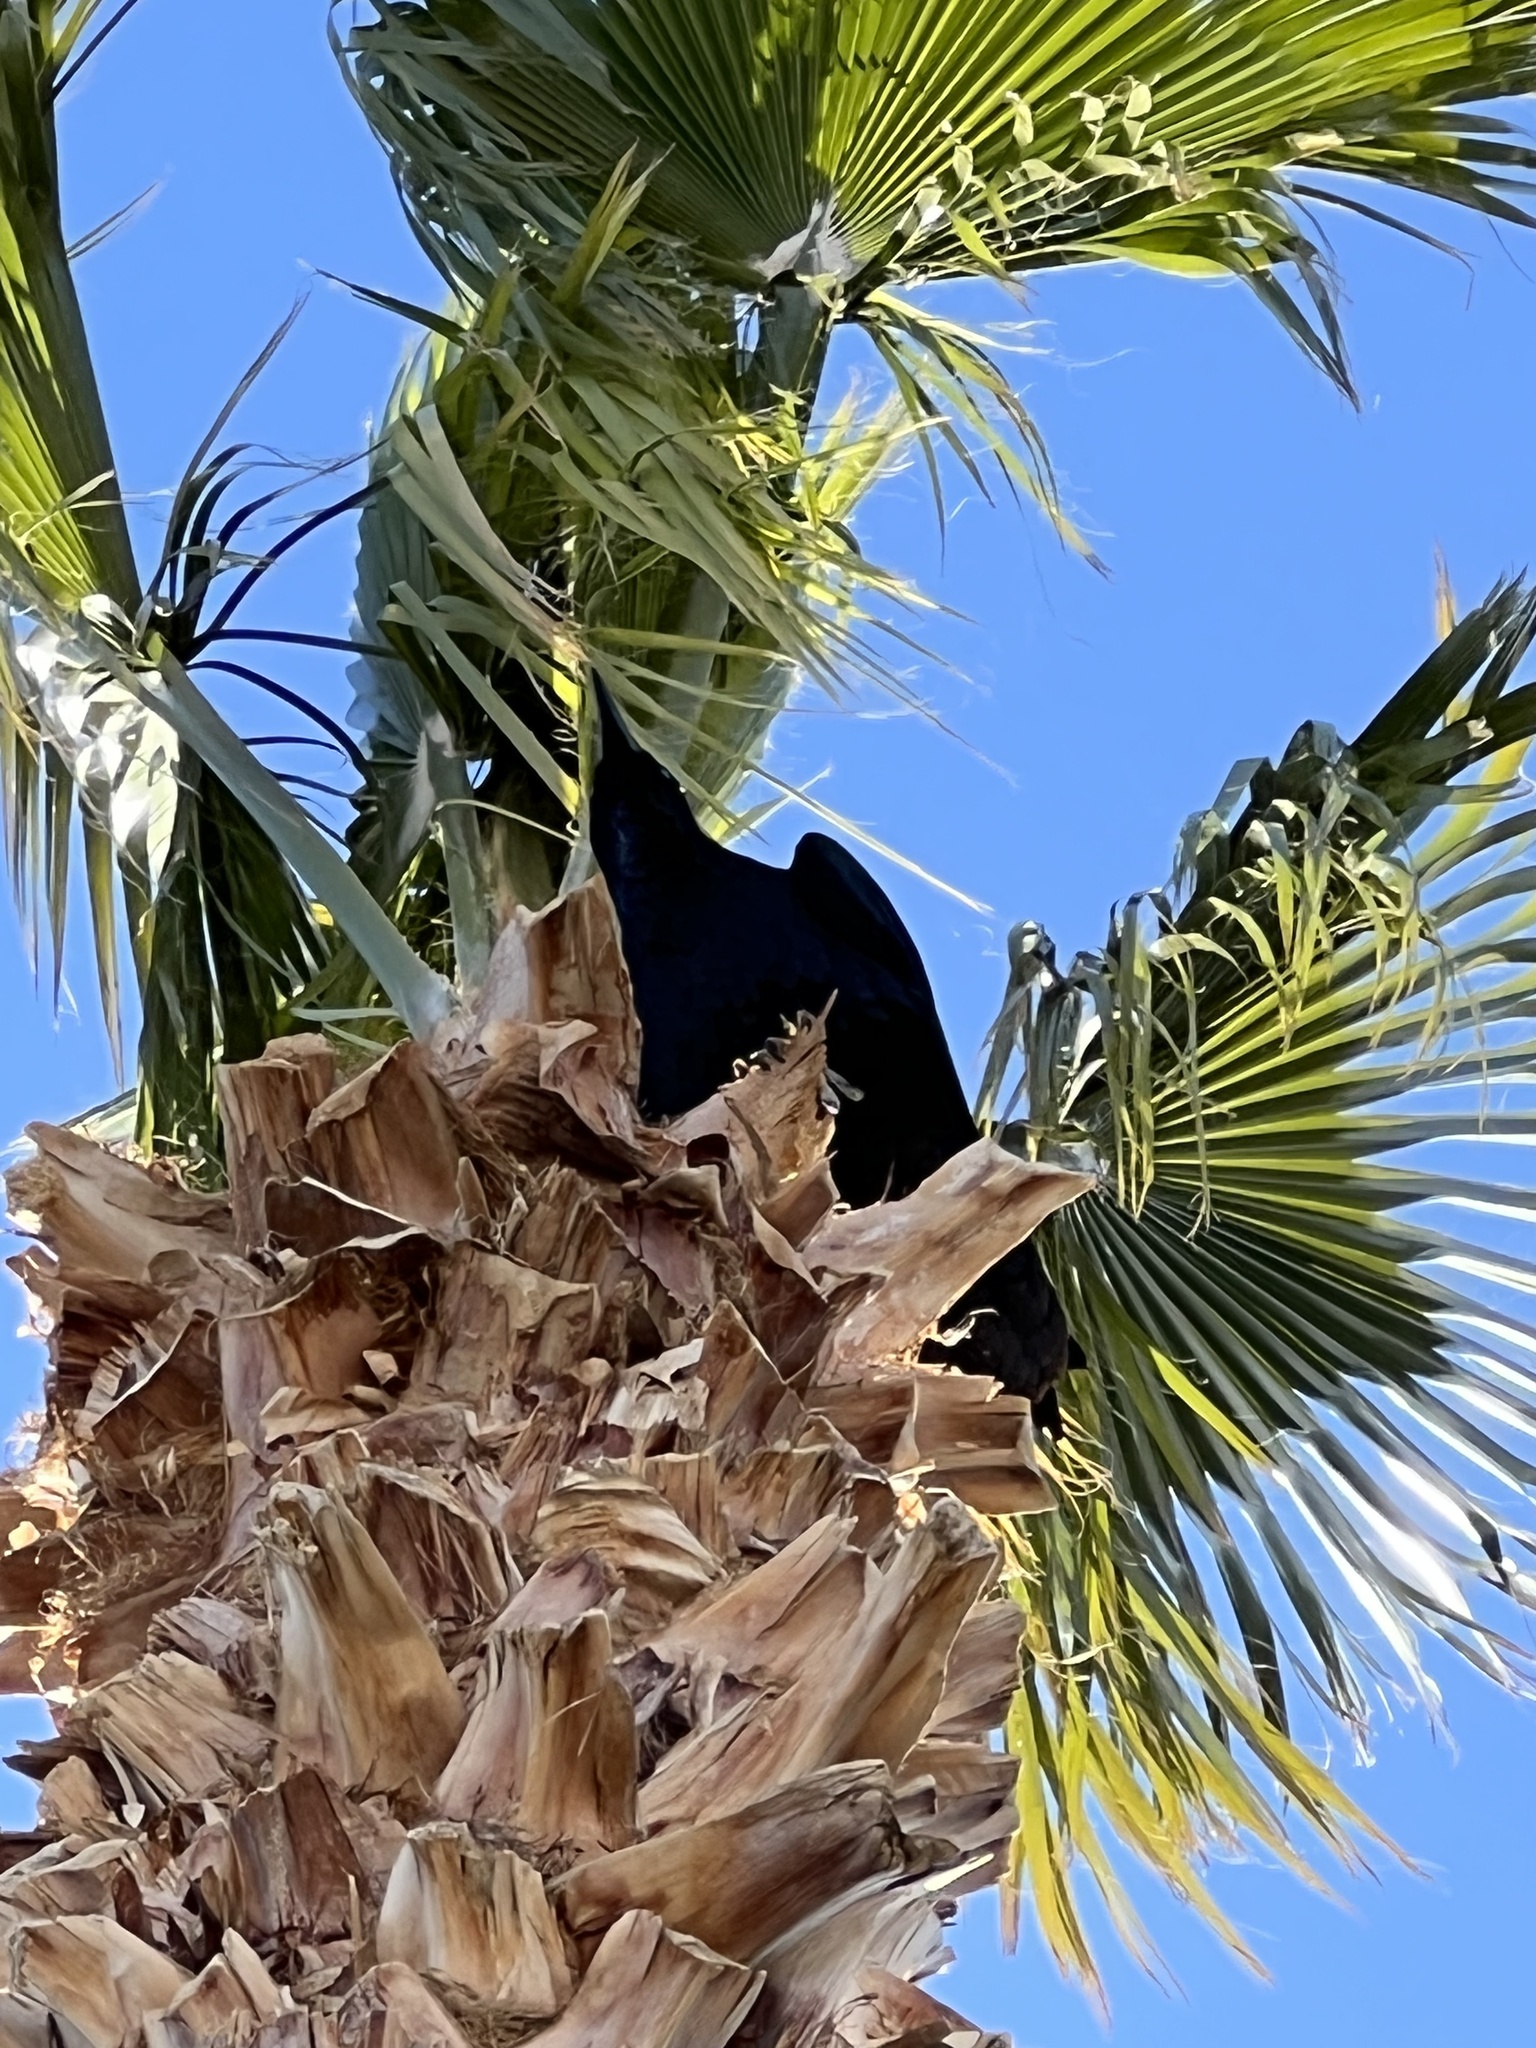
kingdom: Animalia
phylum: Chordata
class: Aves
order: Passeriformes
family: Corvidae
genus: Corvus
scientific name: Corvus corax
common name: Common raven
